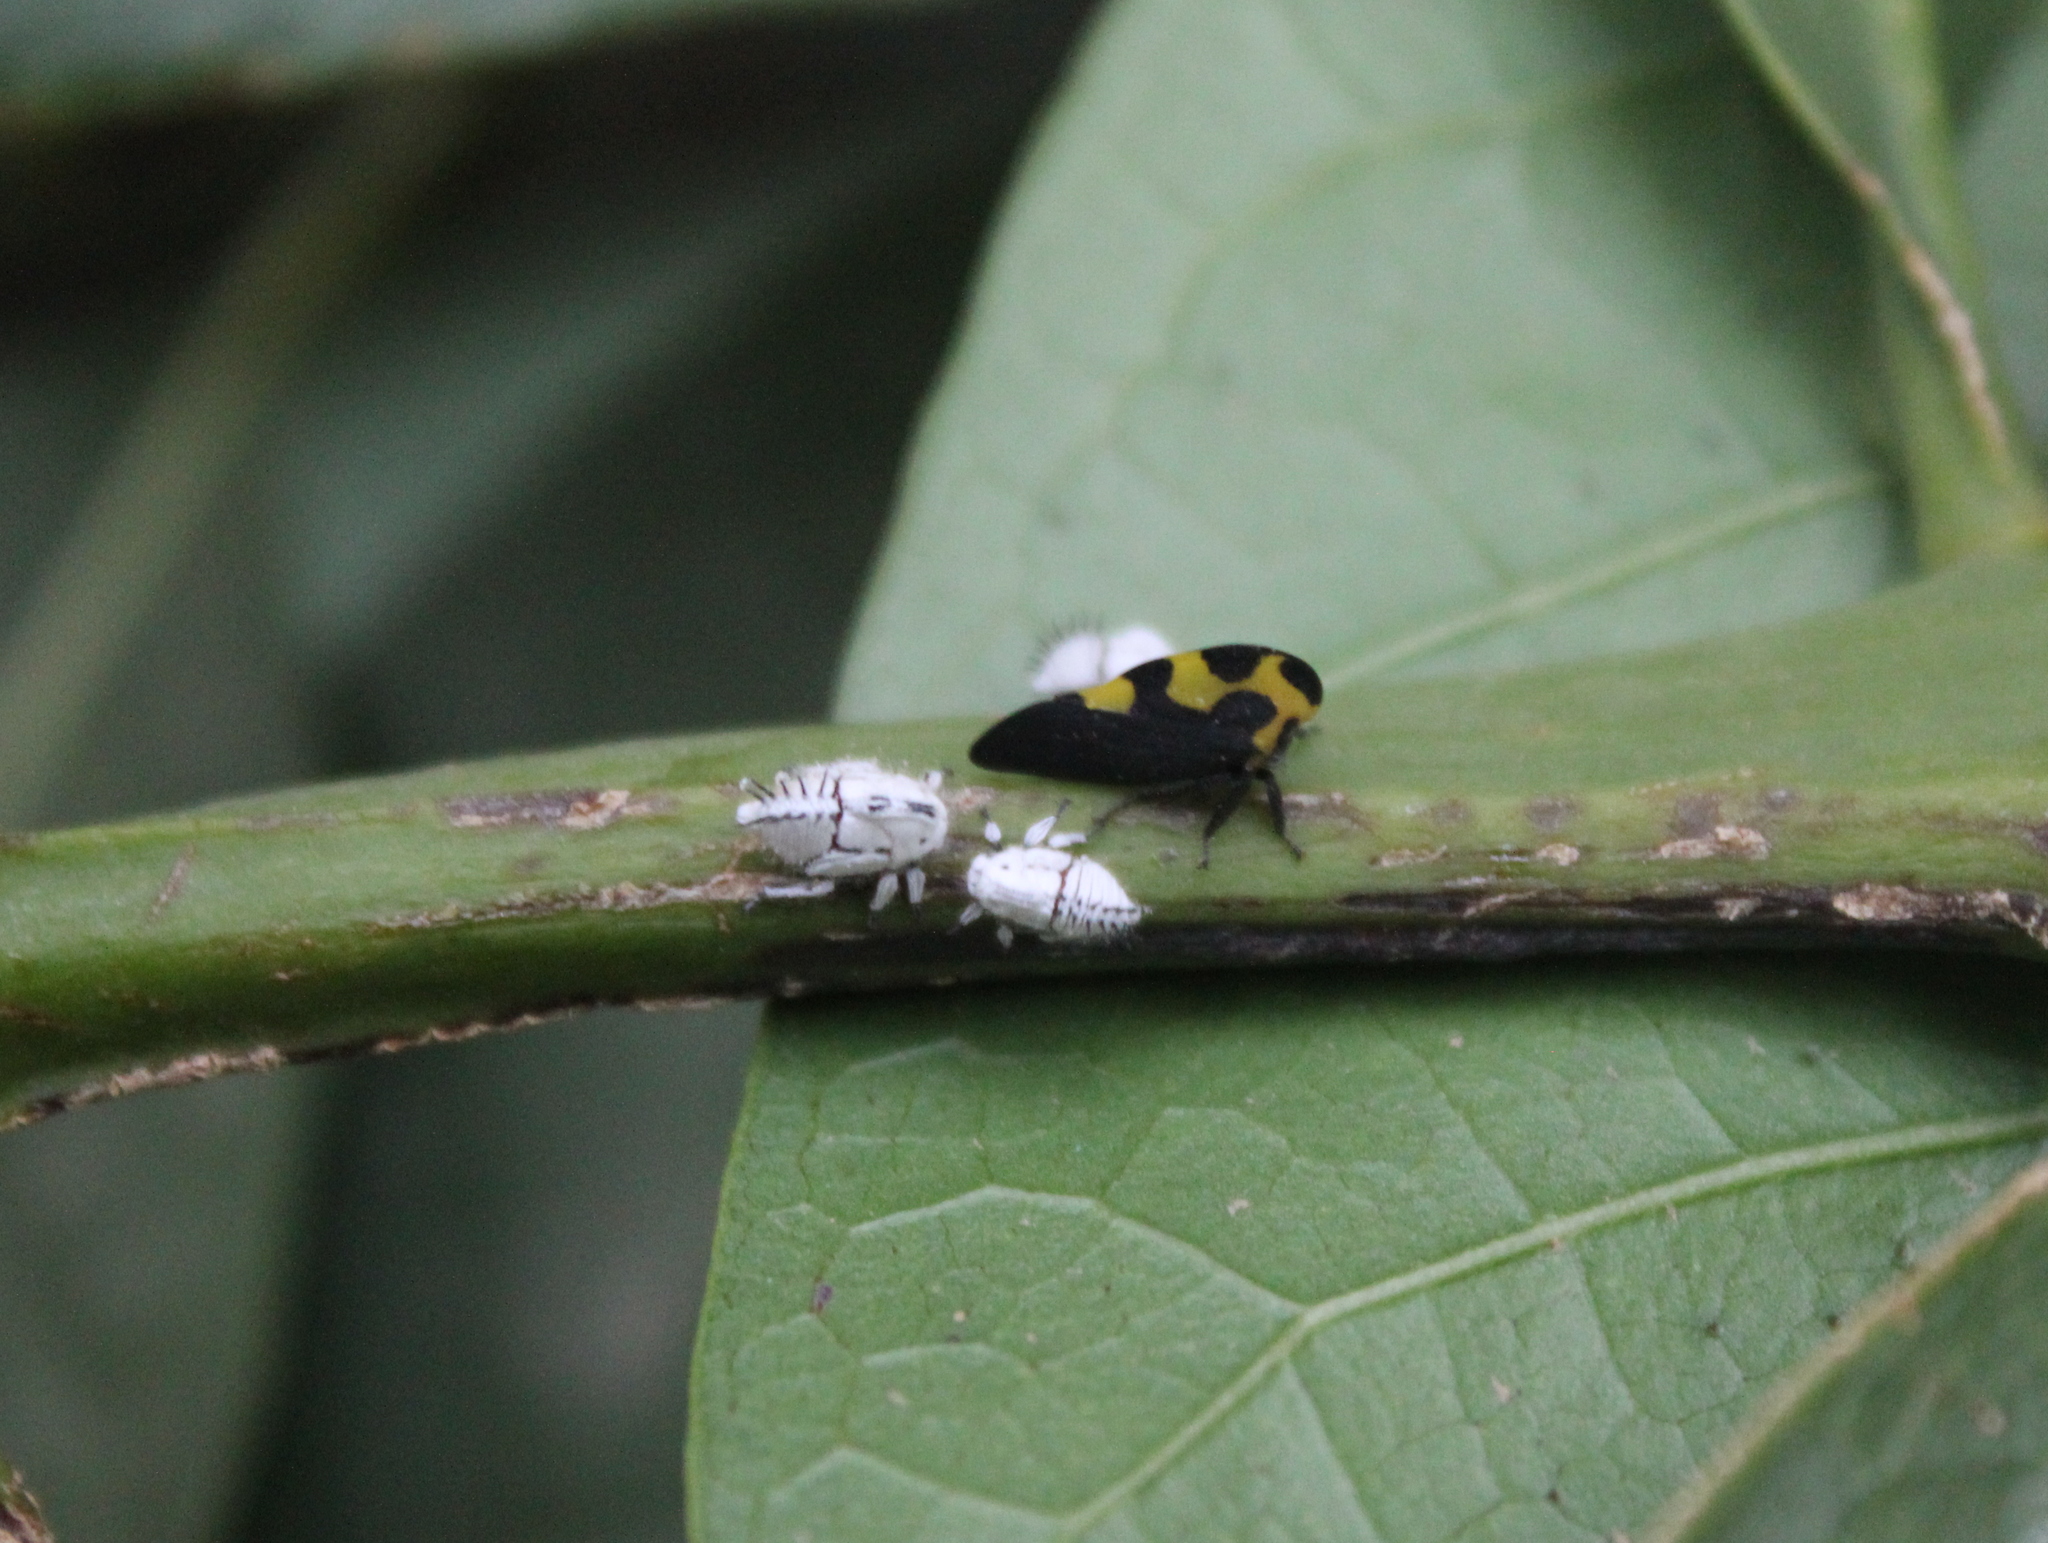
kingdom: Animalia
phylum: Arthropoda
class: Insecta
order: Hemiptera
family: Membracidae
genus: Membracis
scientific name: Membracis mexicana
